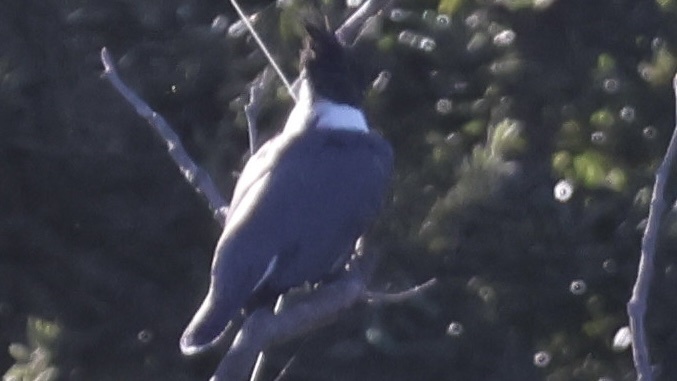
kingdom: Animalia
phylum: Chordata
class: Aves
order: Coraciiformes
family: Alcedinidae
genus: Megaceryle
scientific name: Megaceryle alcyon
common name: Belted kingfisher
